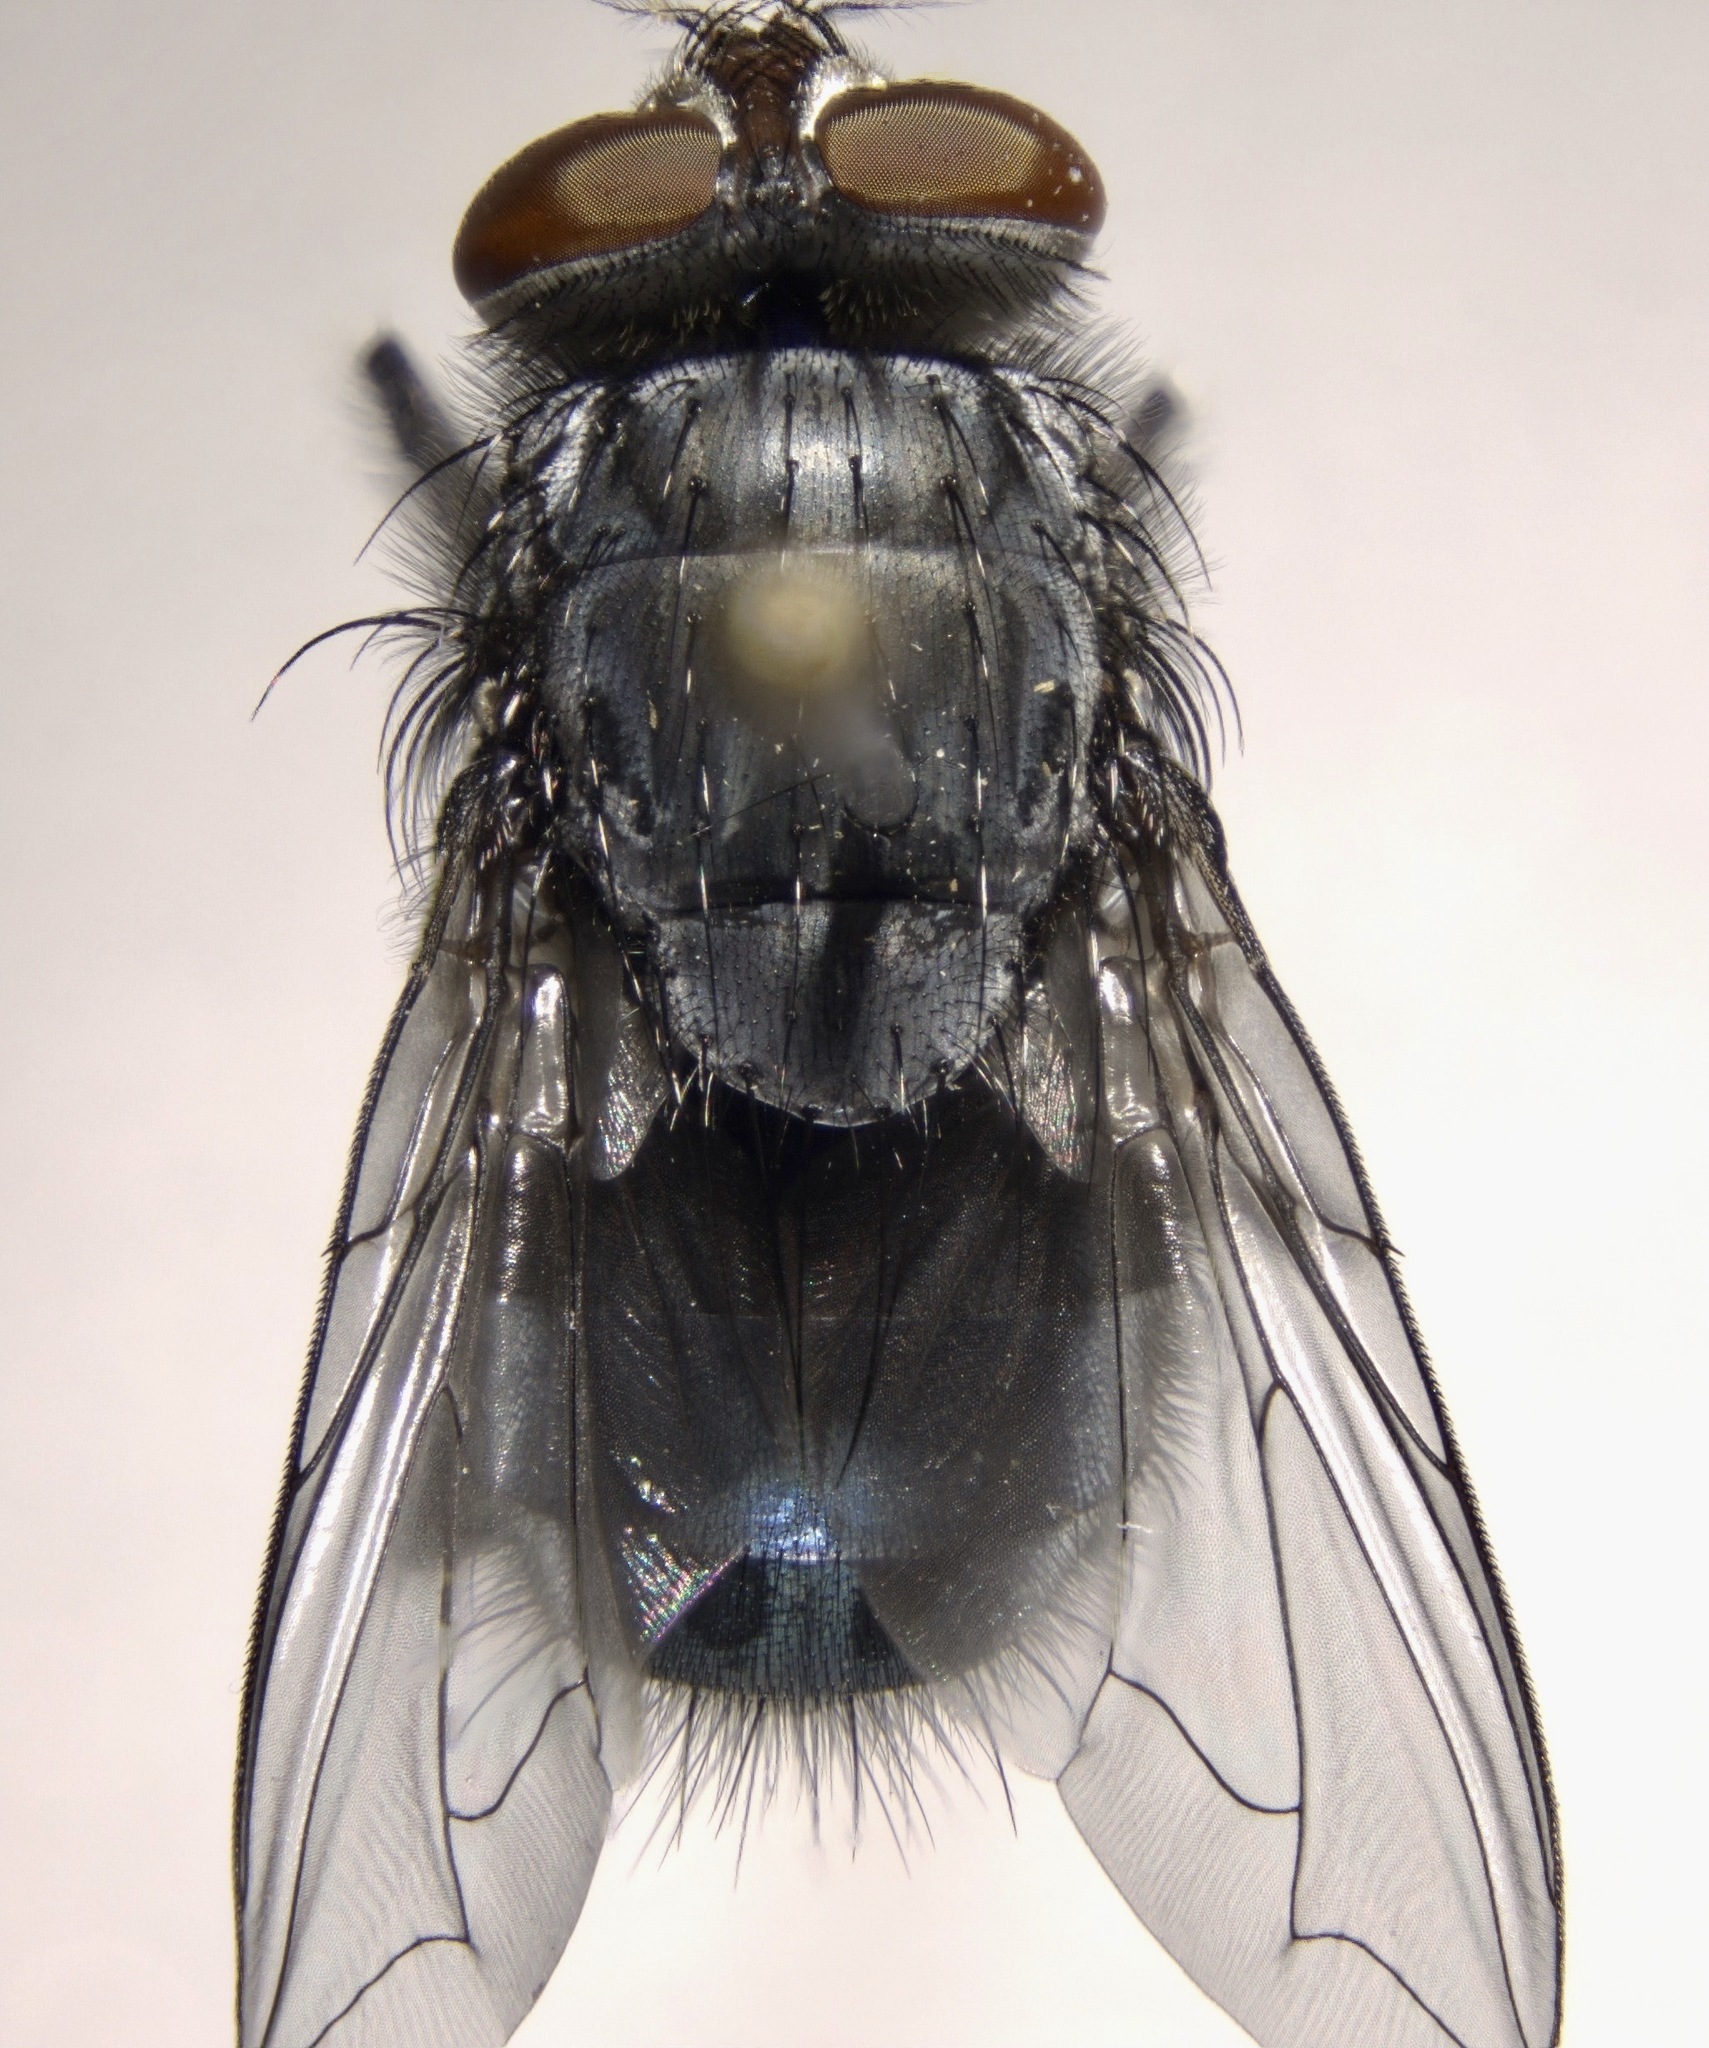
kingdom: Animalia
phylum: Arthropoda
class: Insecta
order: Diptera
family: Calliphoridae
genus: Calliphora
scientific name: Calliphora coloradensis
